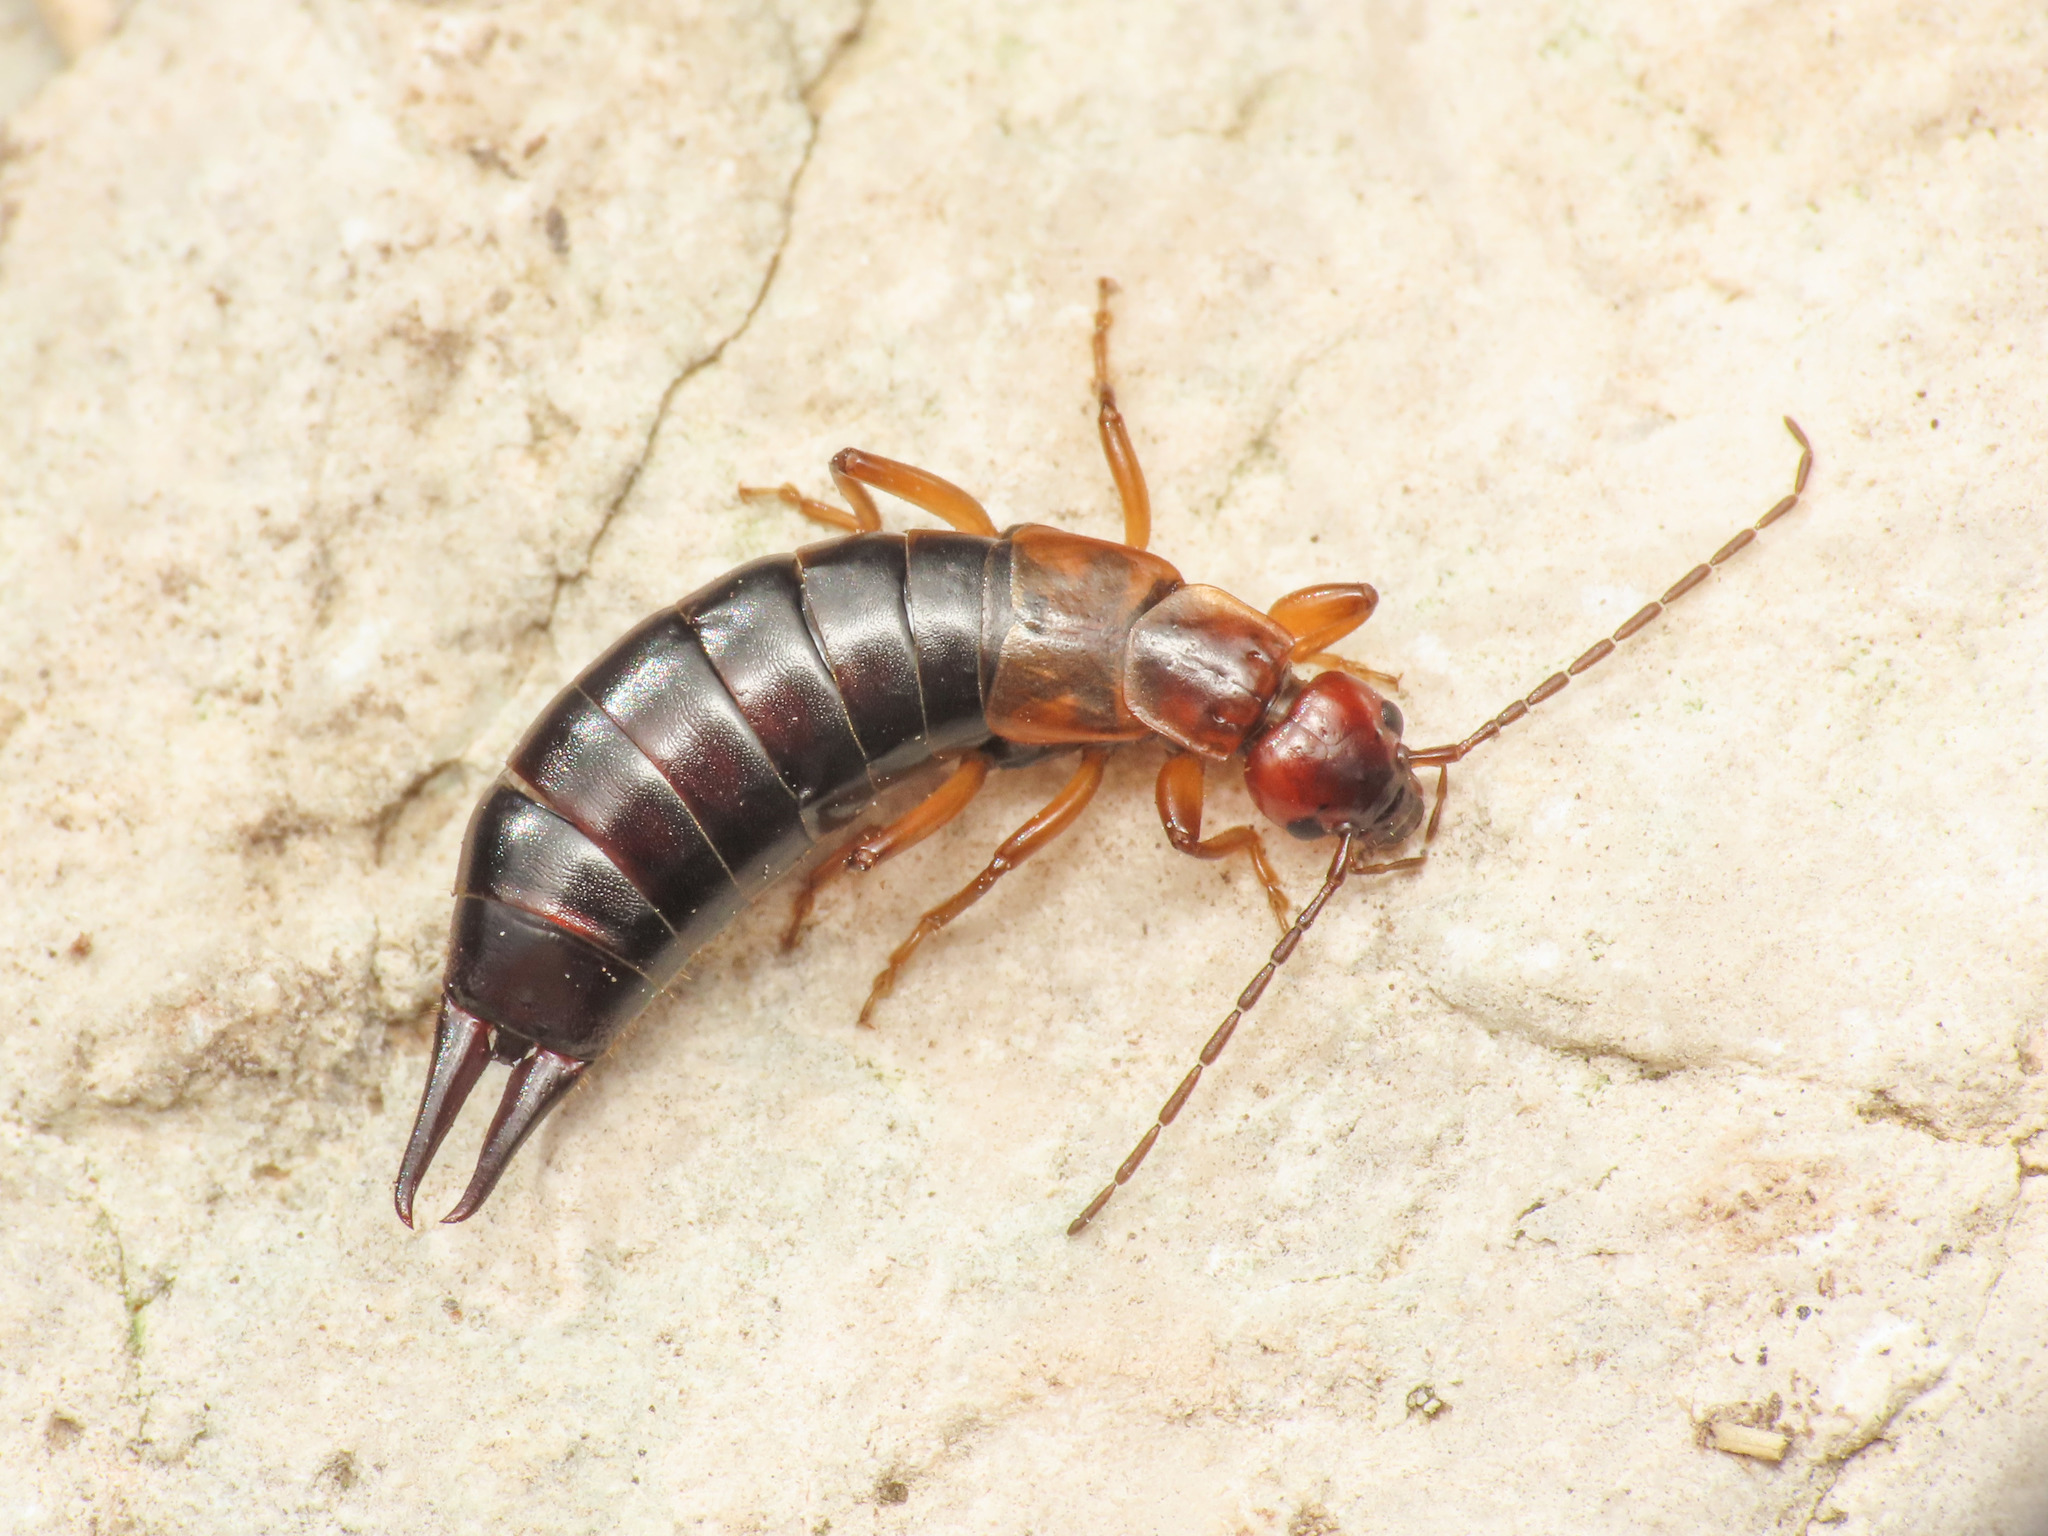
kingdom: Animalia
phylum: Arthropoda
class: Insecta
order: Dermaptera
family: Forficulidae
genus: Pseudochelidura
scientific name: Pseudochelidura orsinii
